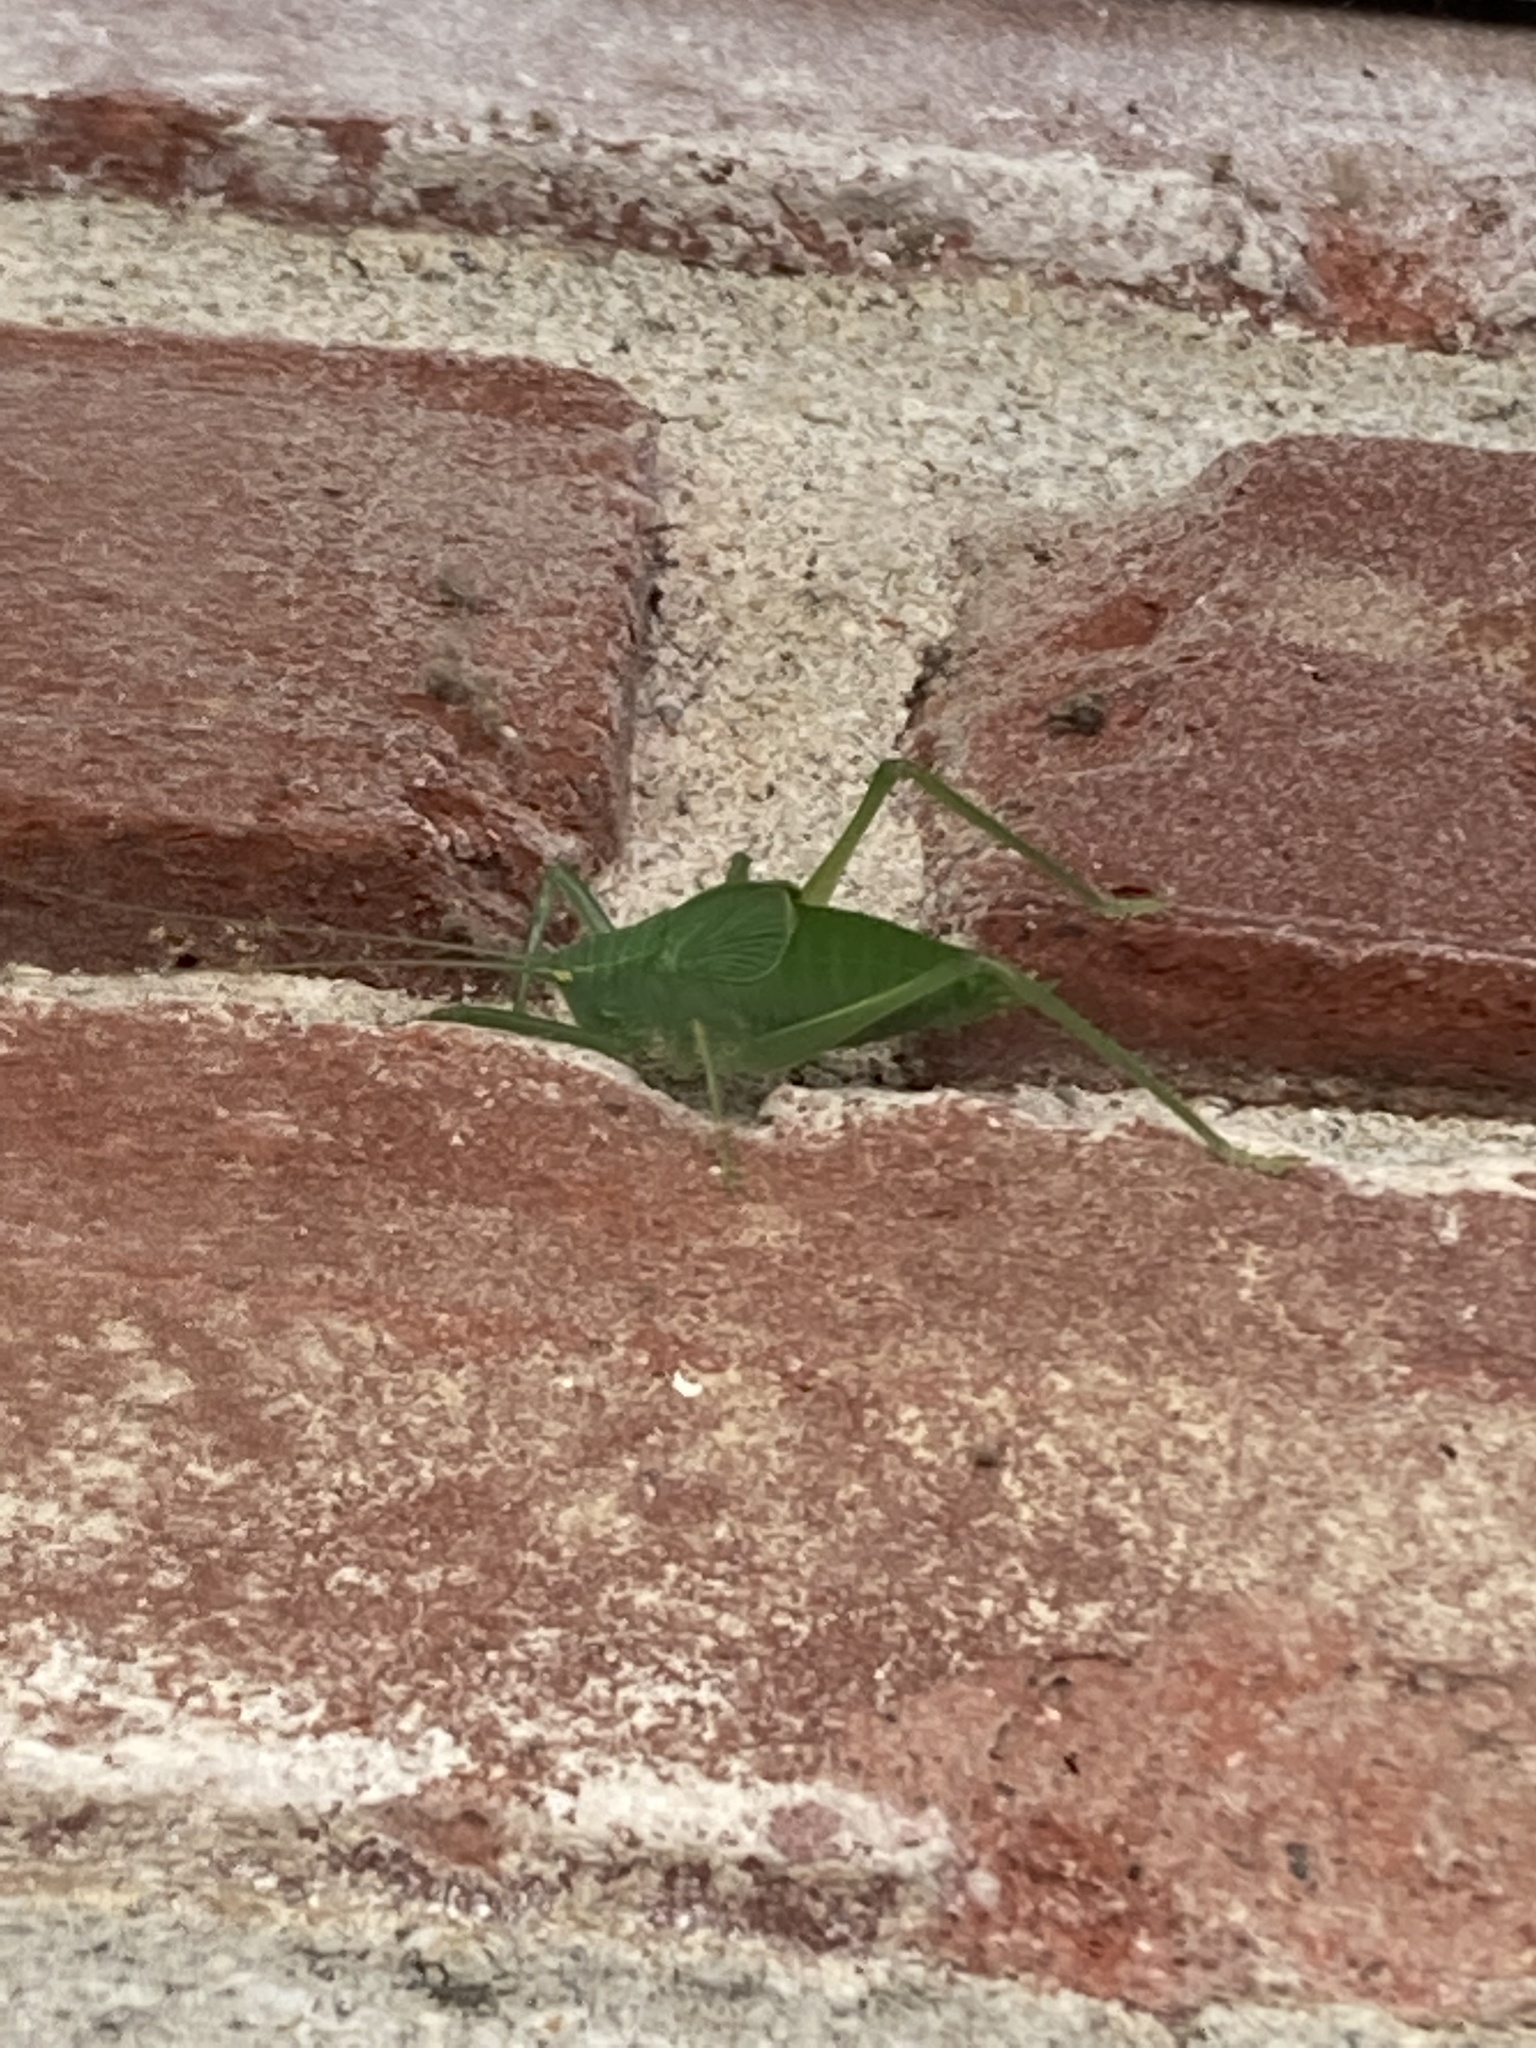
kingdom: Animalia
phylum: Arthropoda
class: Insecta
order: Orthoptera
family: Tettigoniidae
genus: Pterophylla
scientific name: Pterophylla camellifolia
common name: Common true katydid
